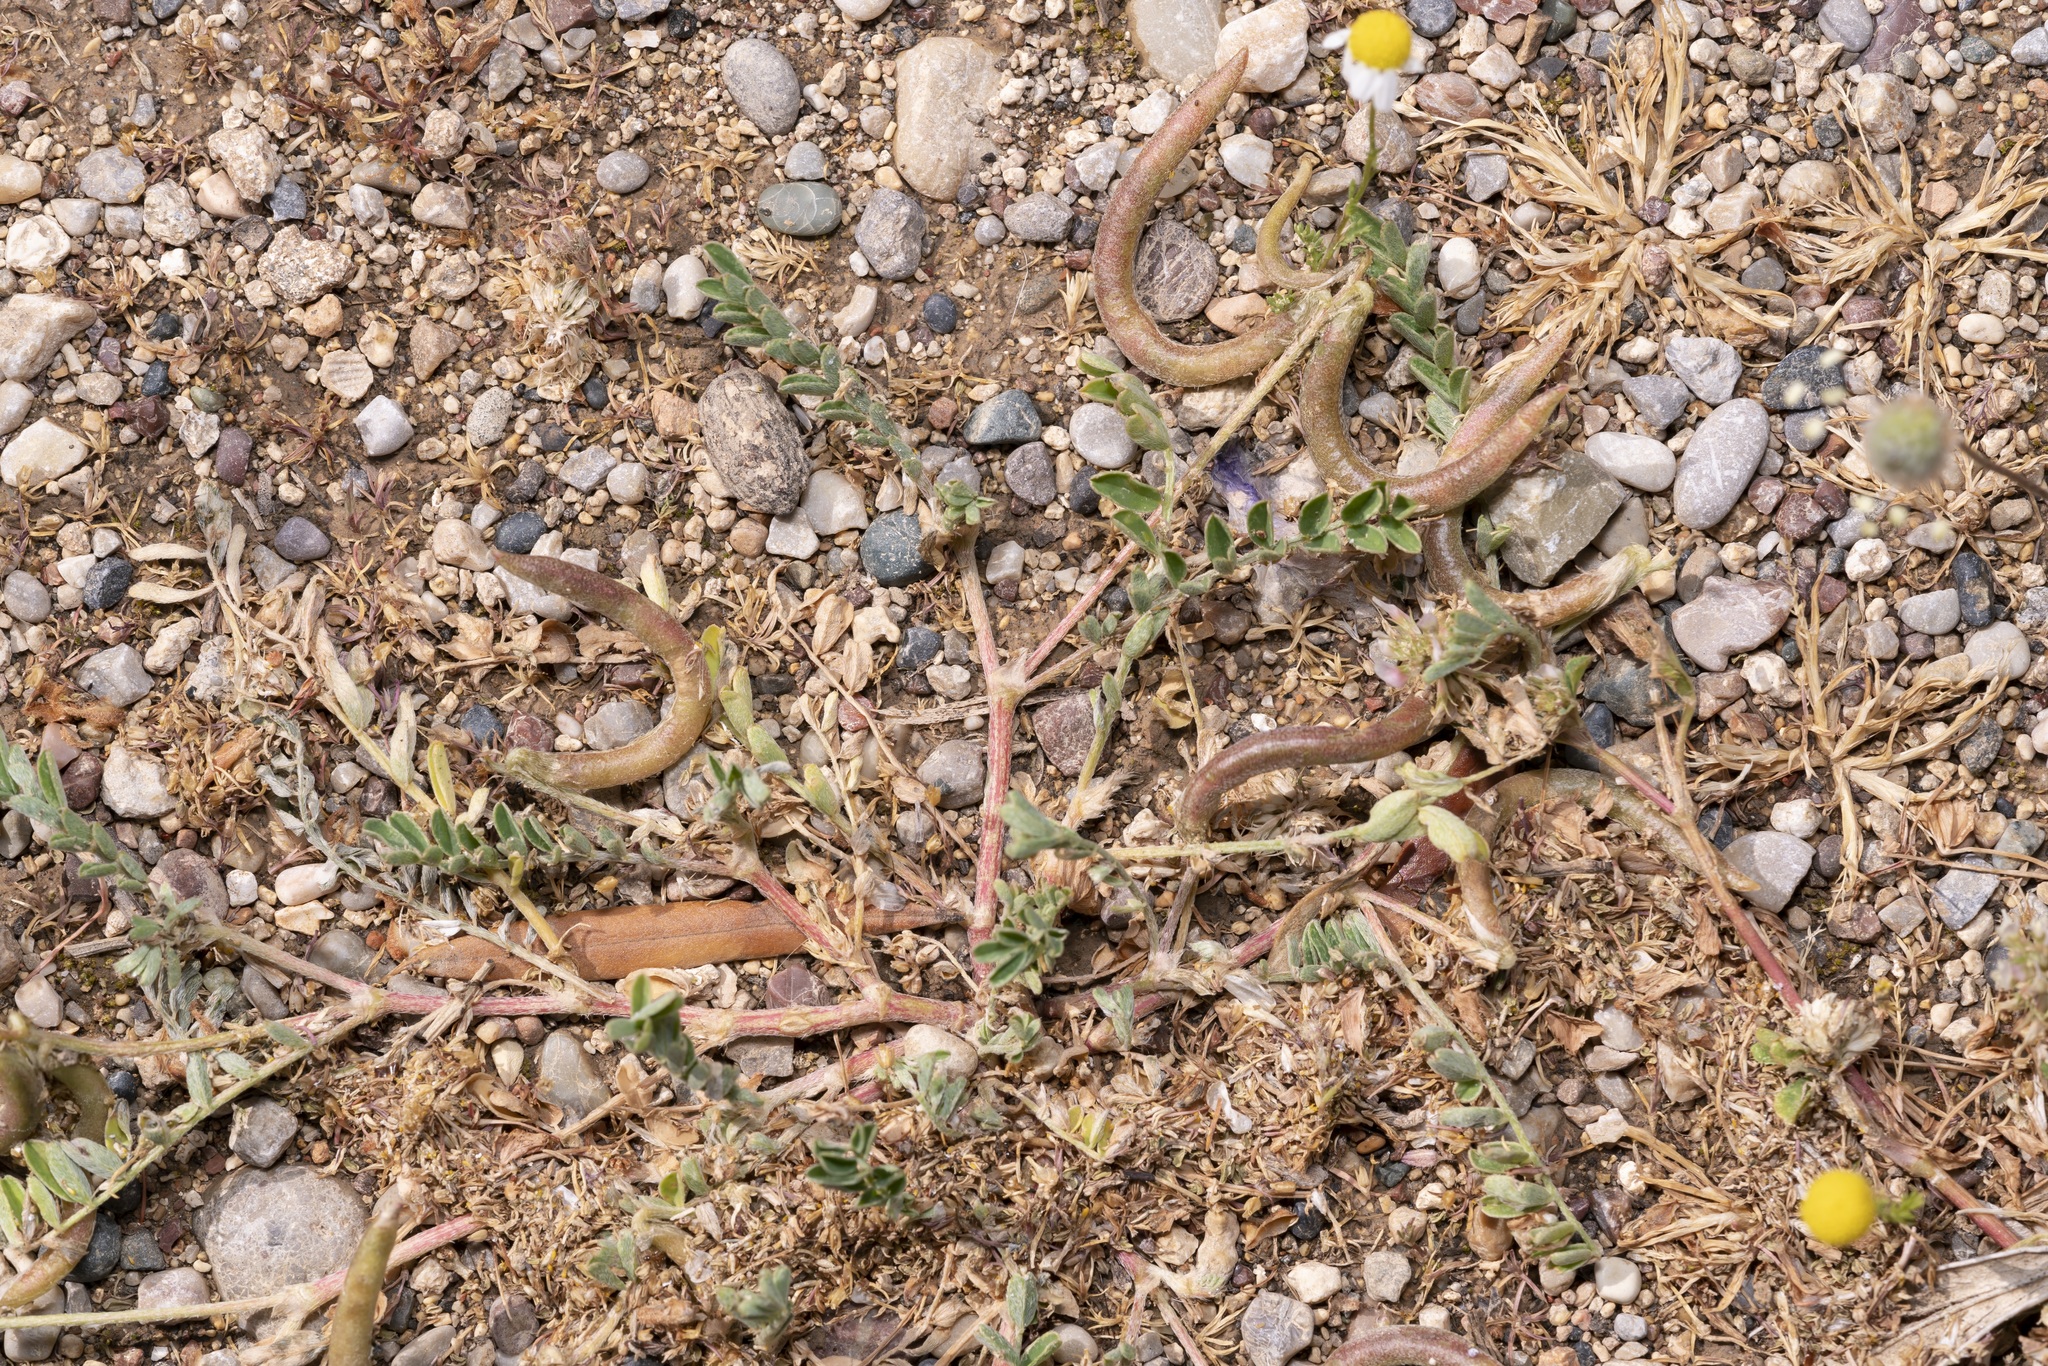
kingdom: Plantae
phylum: Tracheophyta
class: Magnoliopsida
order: Fabales
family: Fabaceae
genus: Astragalus
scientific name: Astragalus hamosus
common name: European milkvetch
